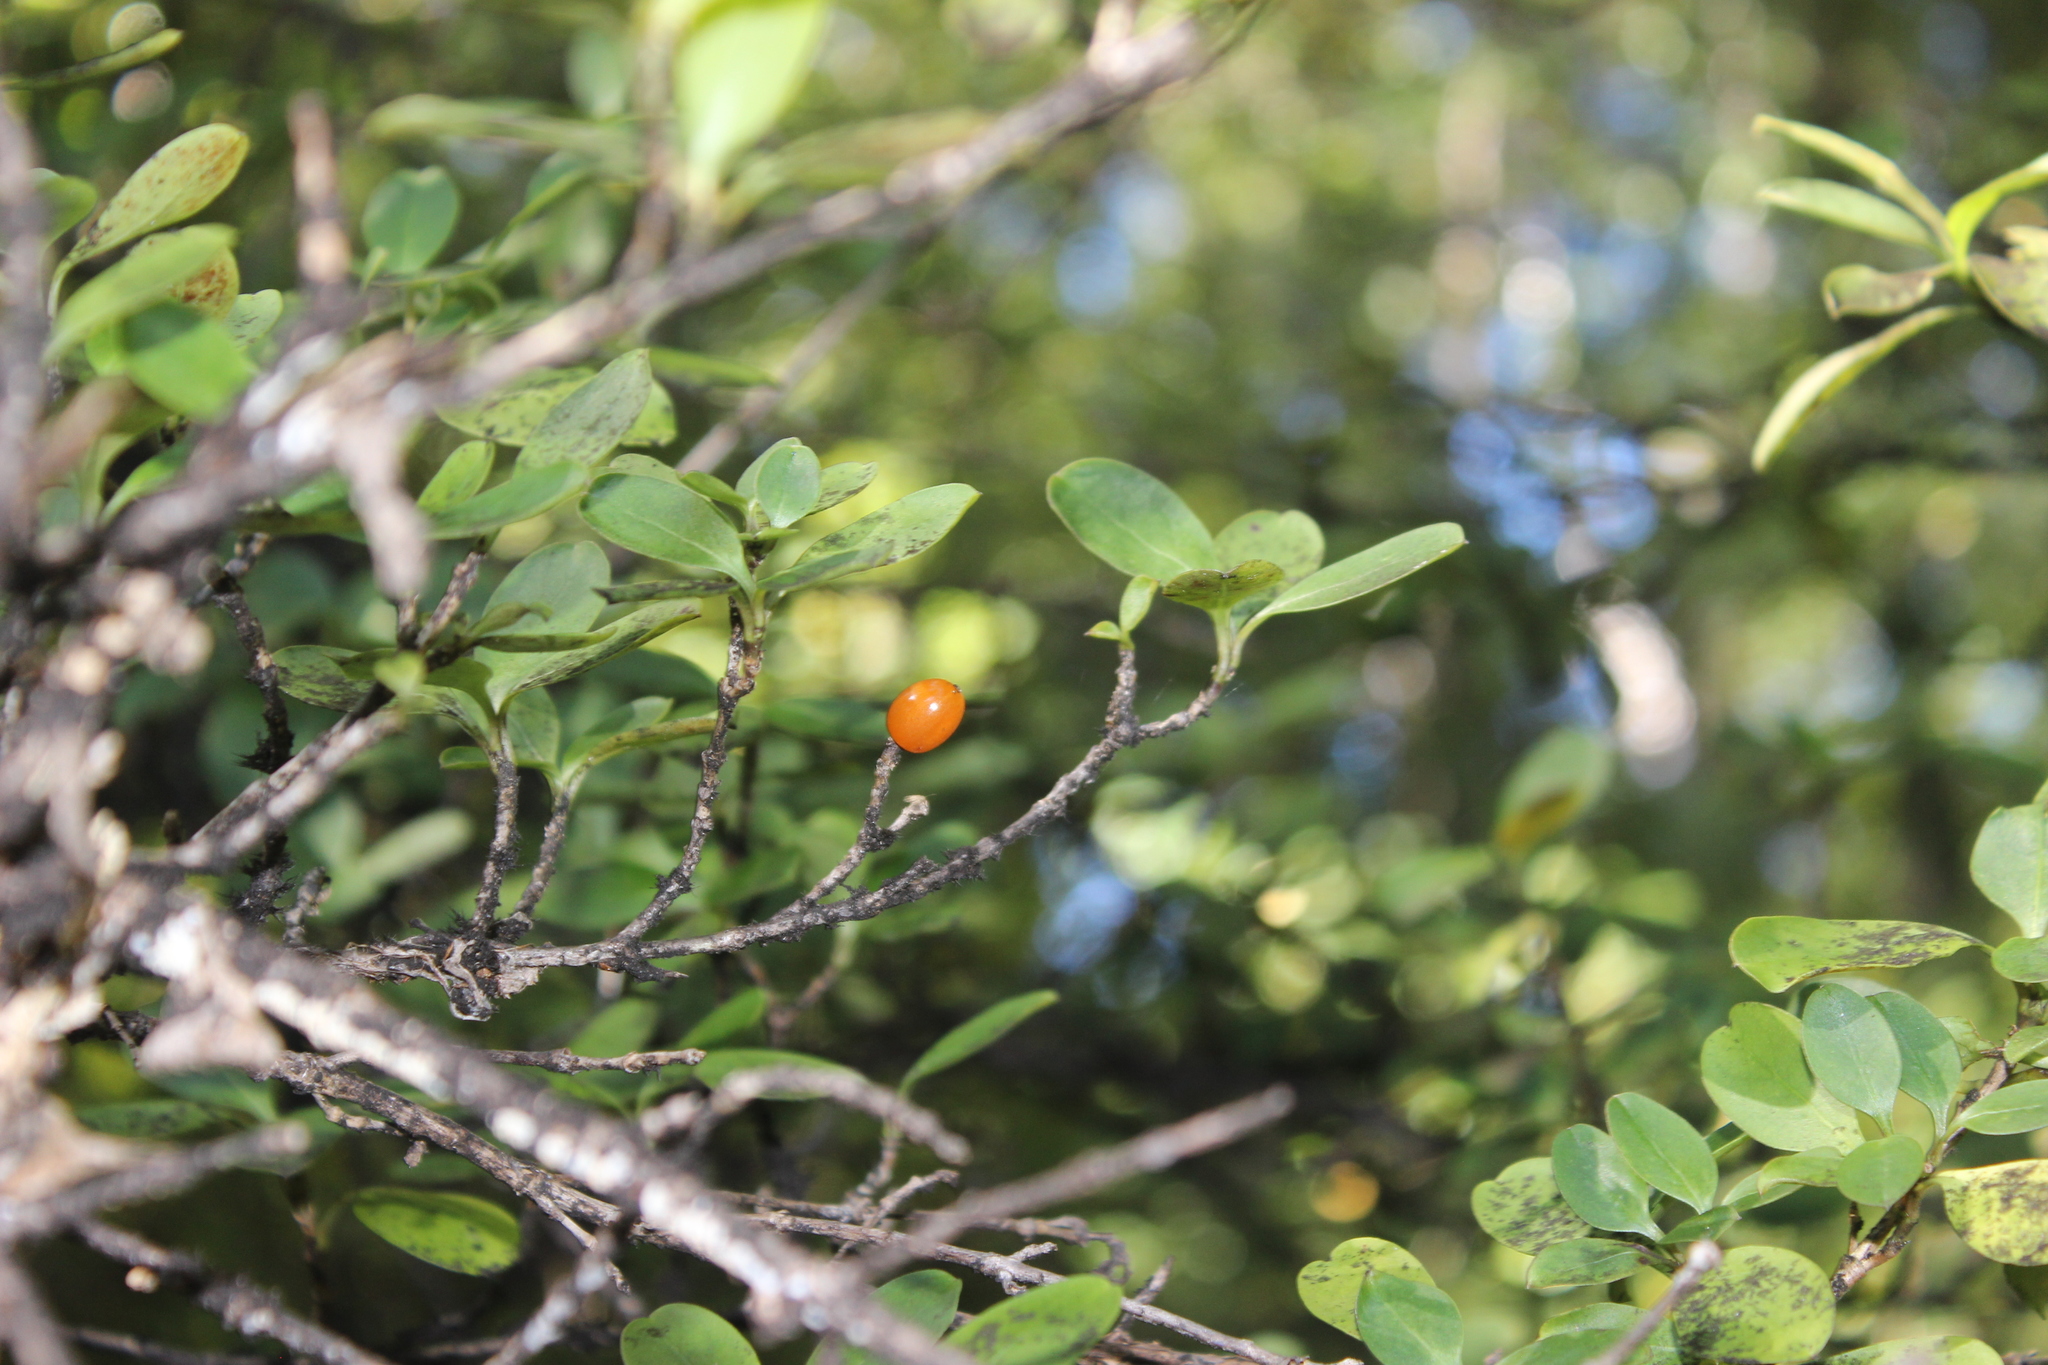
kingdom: Plantae
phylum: Tracheophyta
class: Magnoliopsida
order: Gentianales
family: Rubiaceae
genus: Coprosma
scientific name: Coprosma foetidissima
